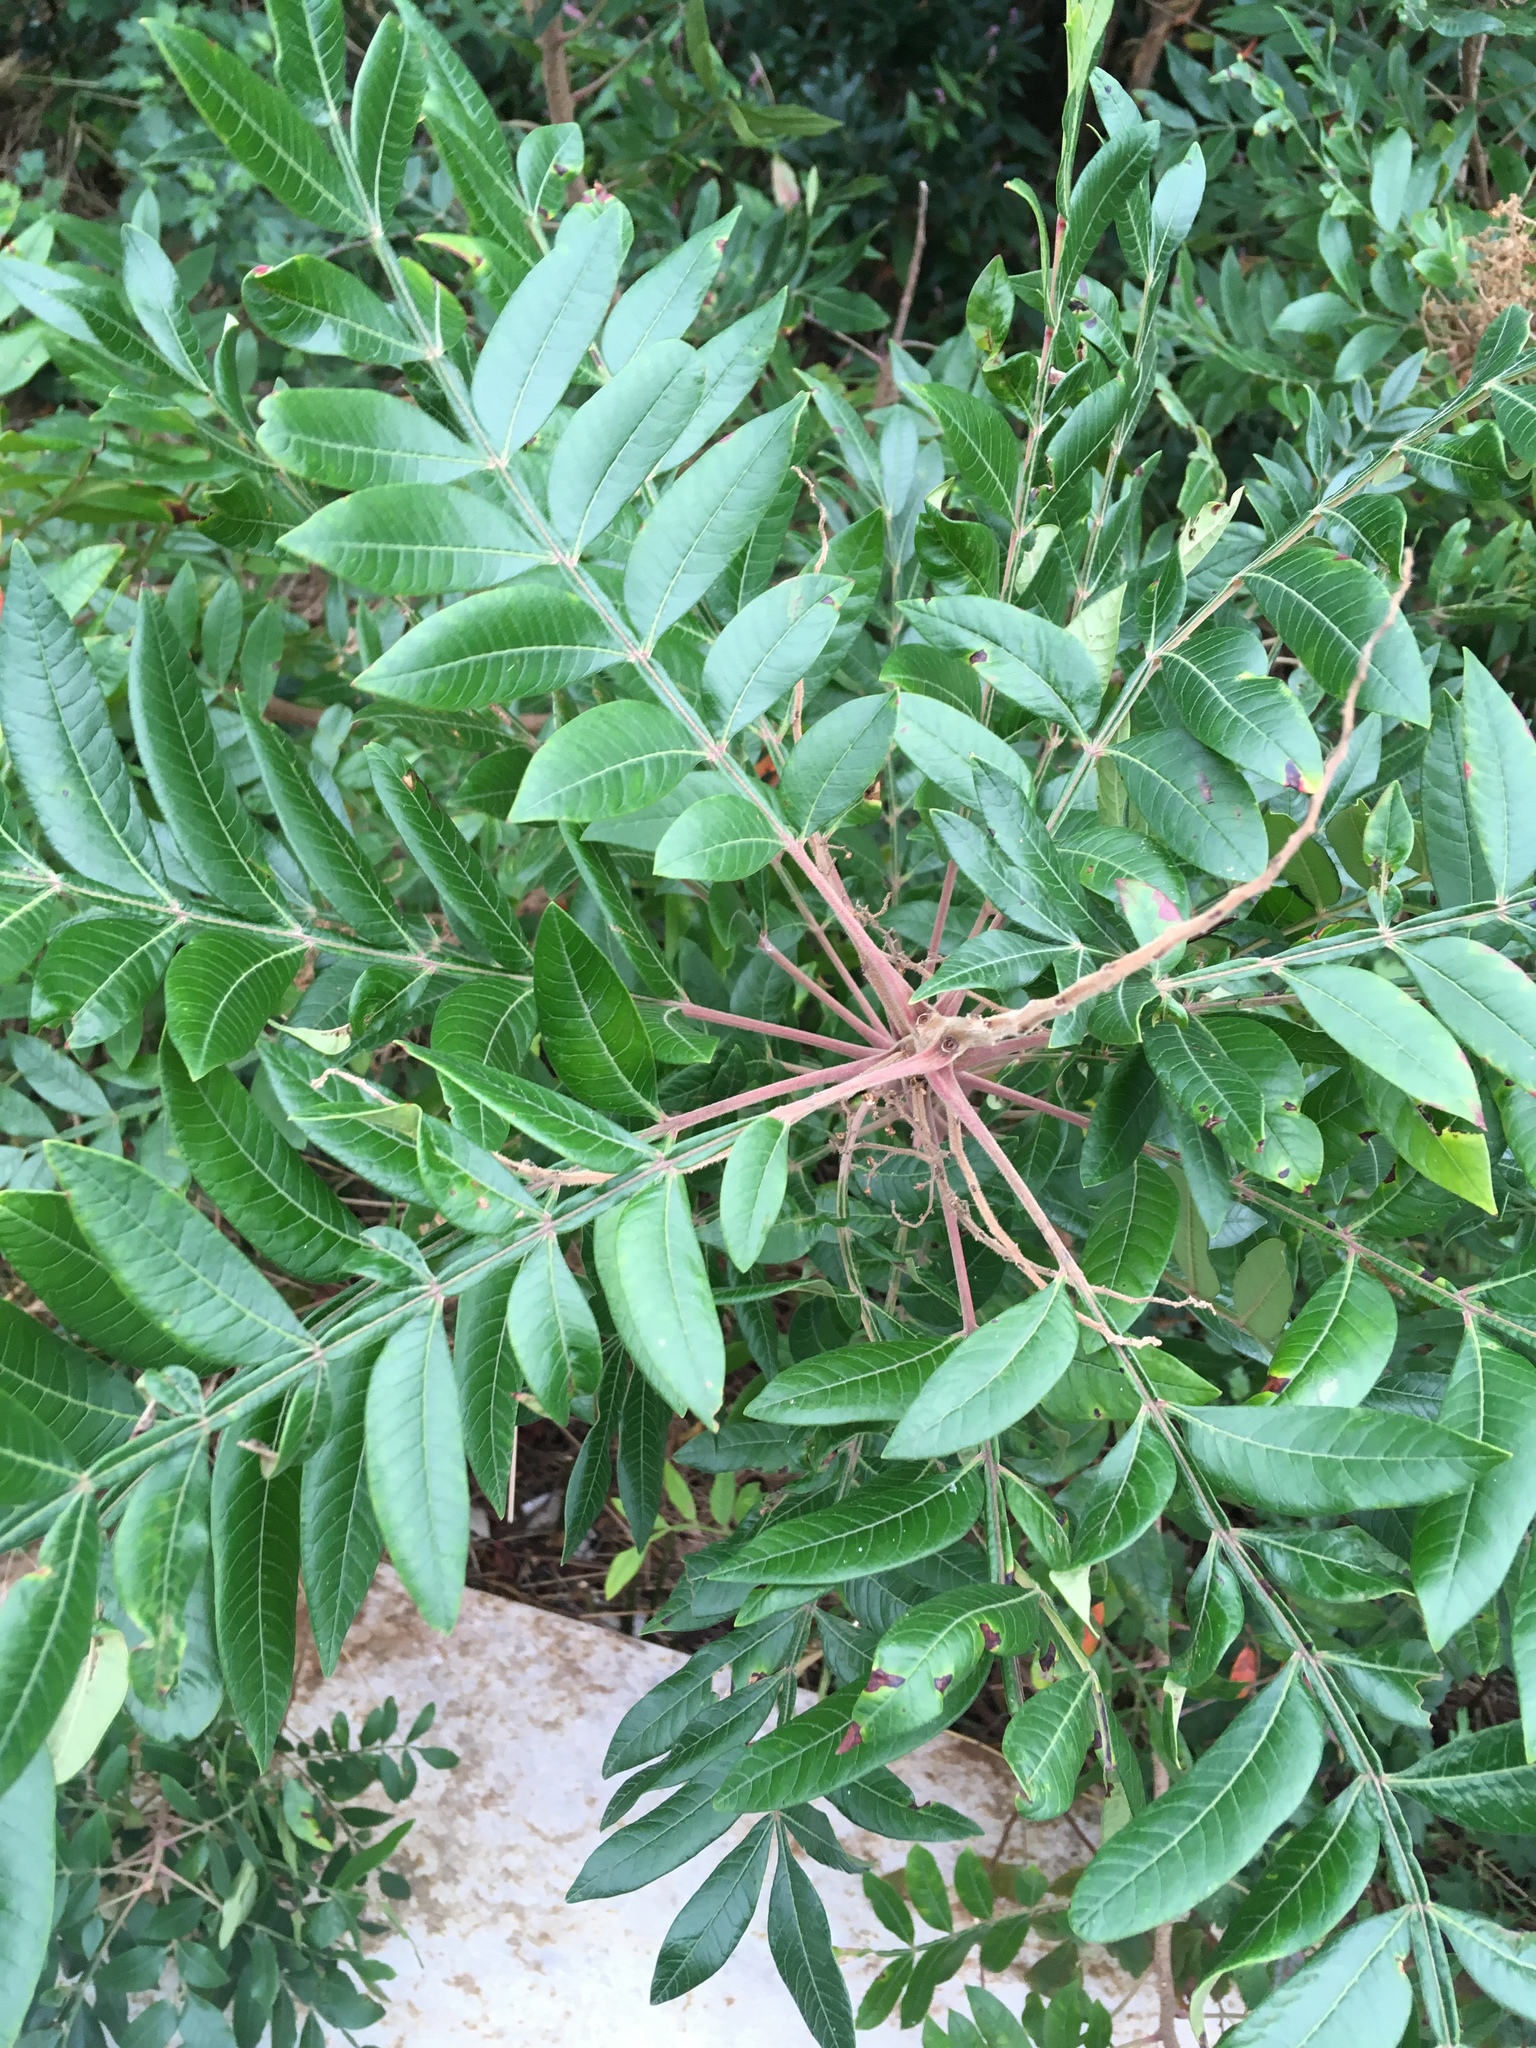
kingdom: Plantae
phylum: Tracheophyta
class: Magnoliopsida
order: Sapindales
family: Anacardiaceae
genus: Rhus
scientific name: Rhus copallina
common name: Shining sumac
